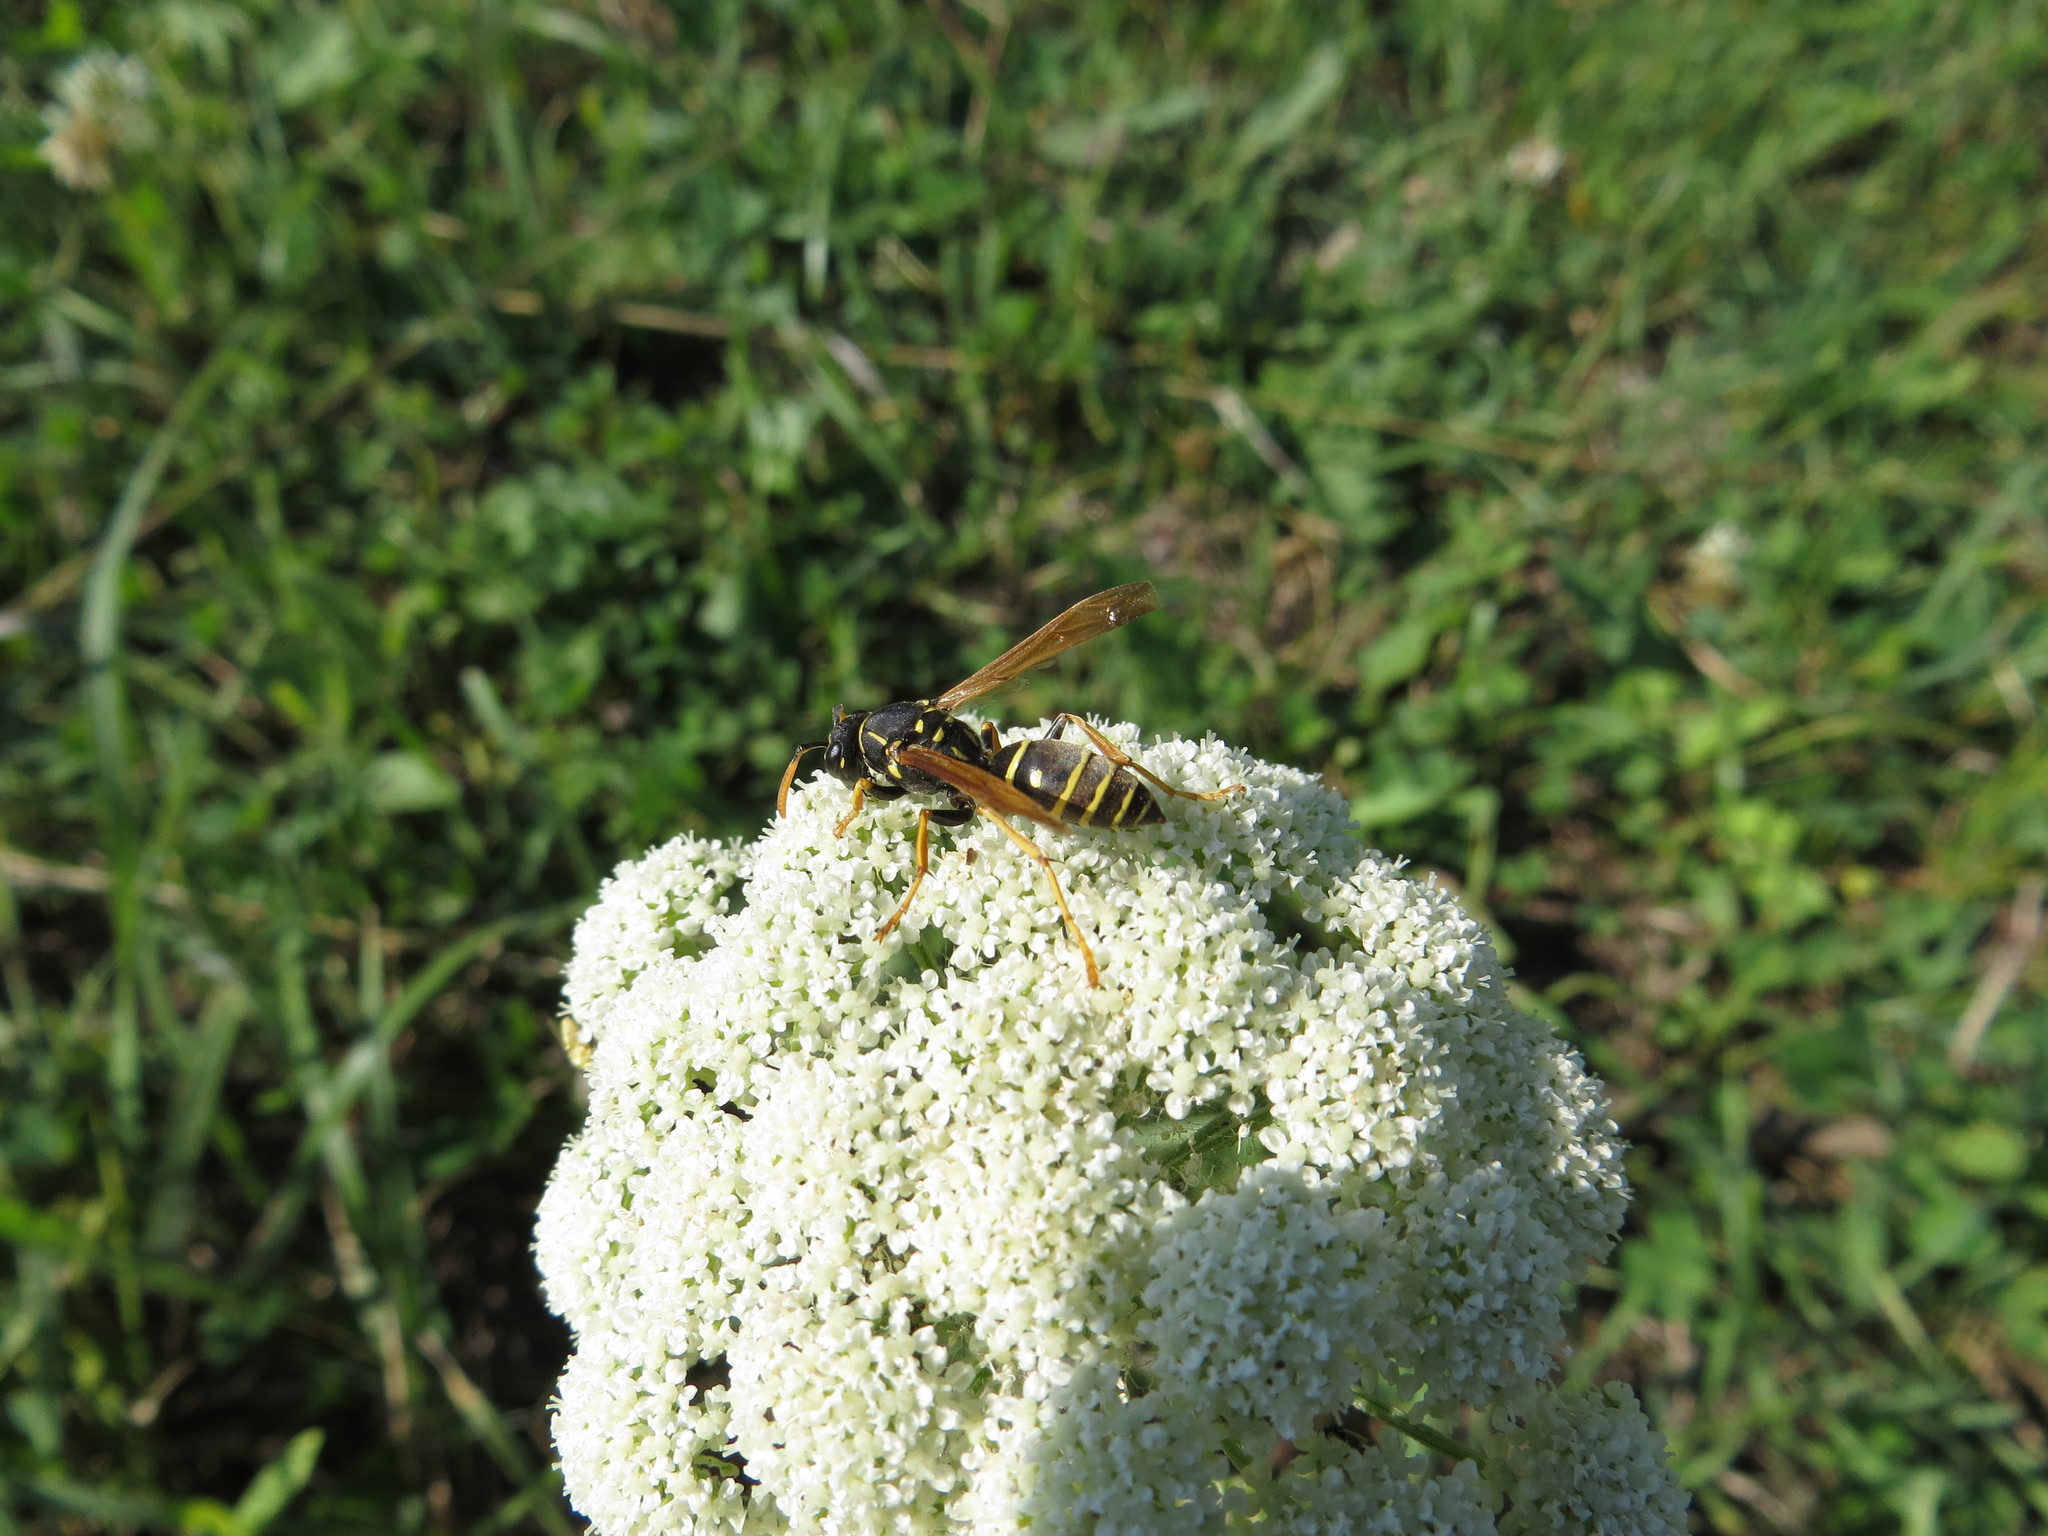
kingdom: Animalia
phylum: Arthropoda
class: Insecta
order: Hymenoptera
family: Eumenidae
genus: Polistes
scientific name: Polistes nimpha
